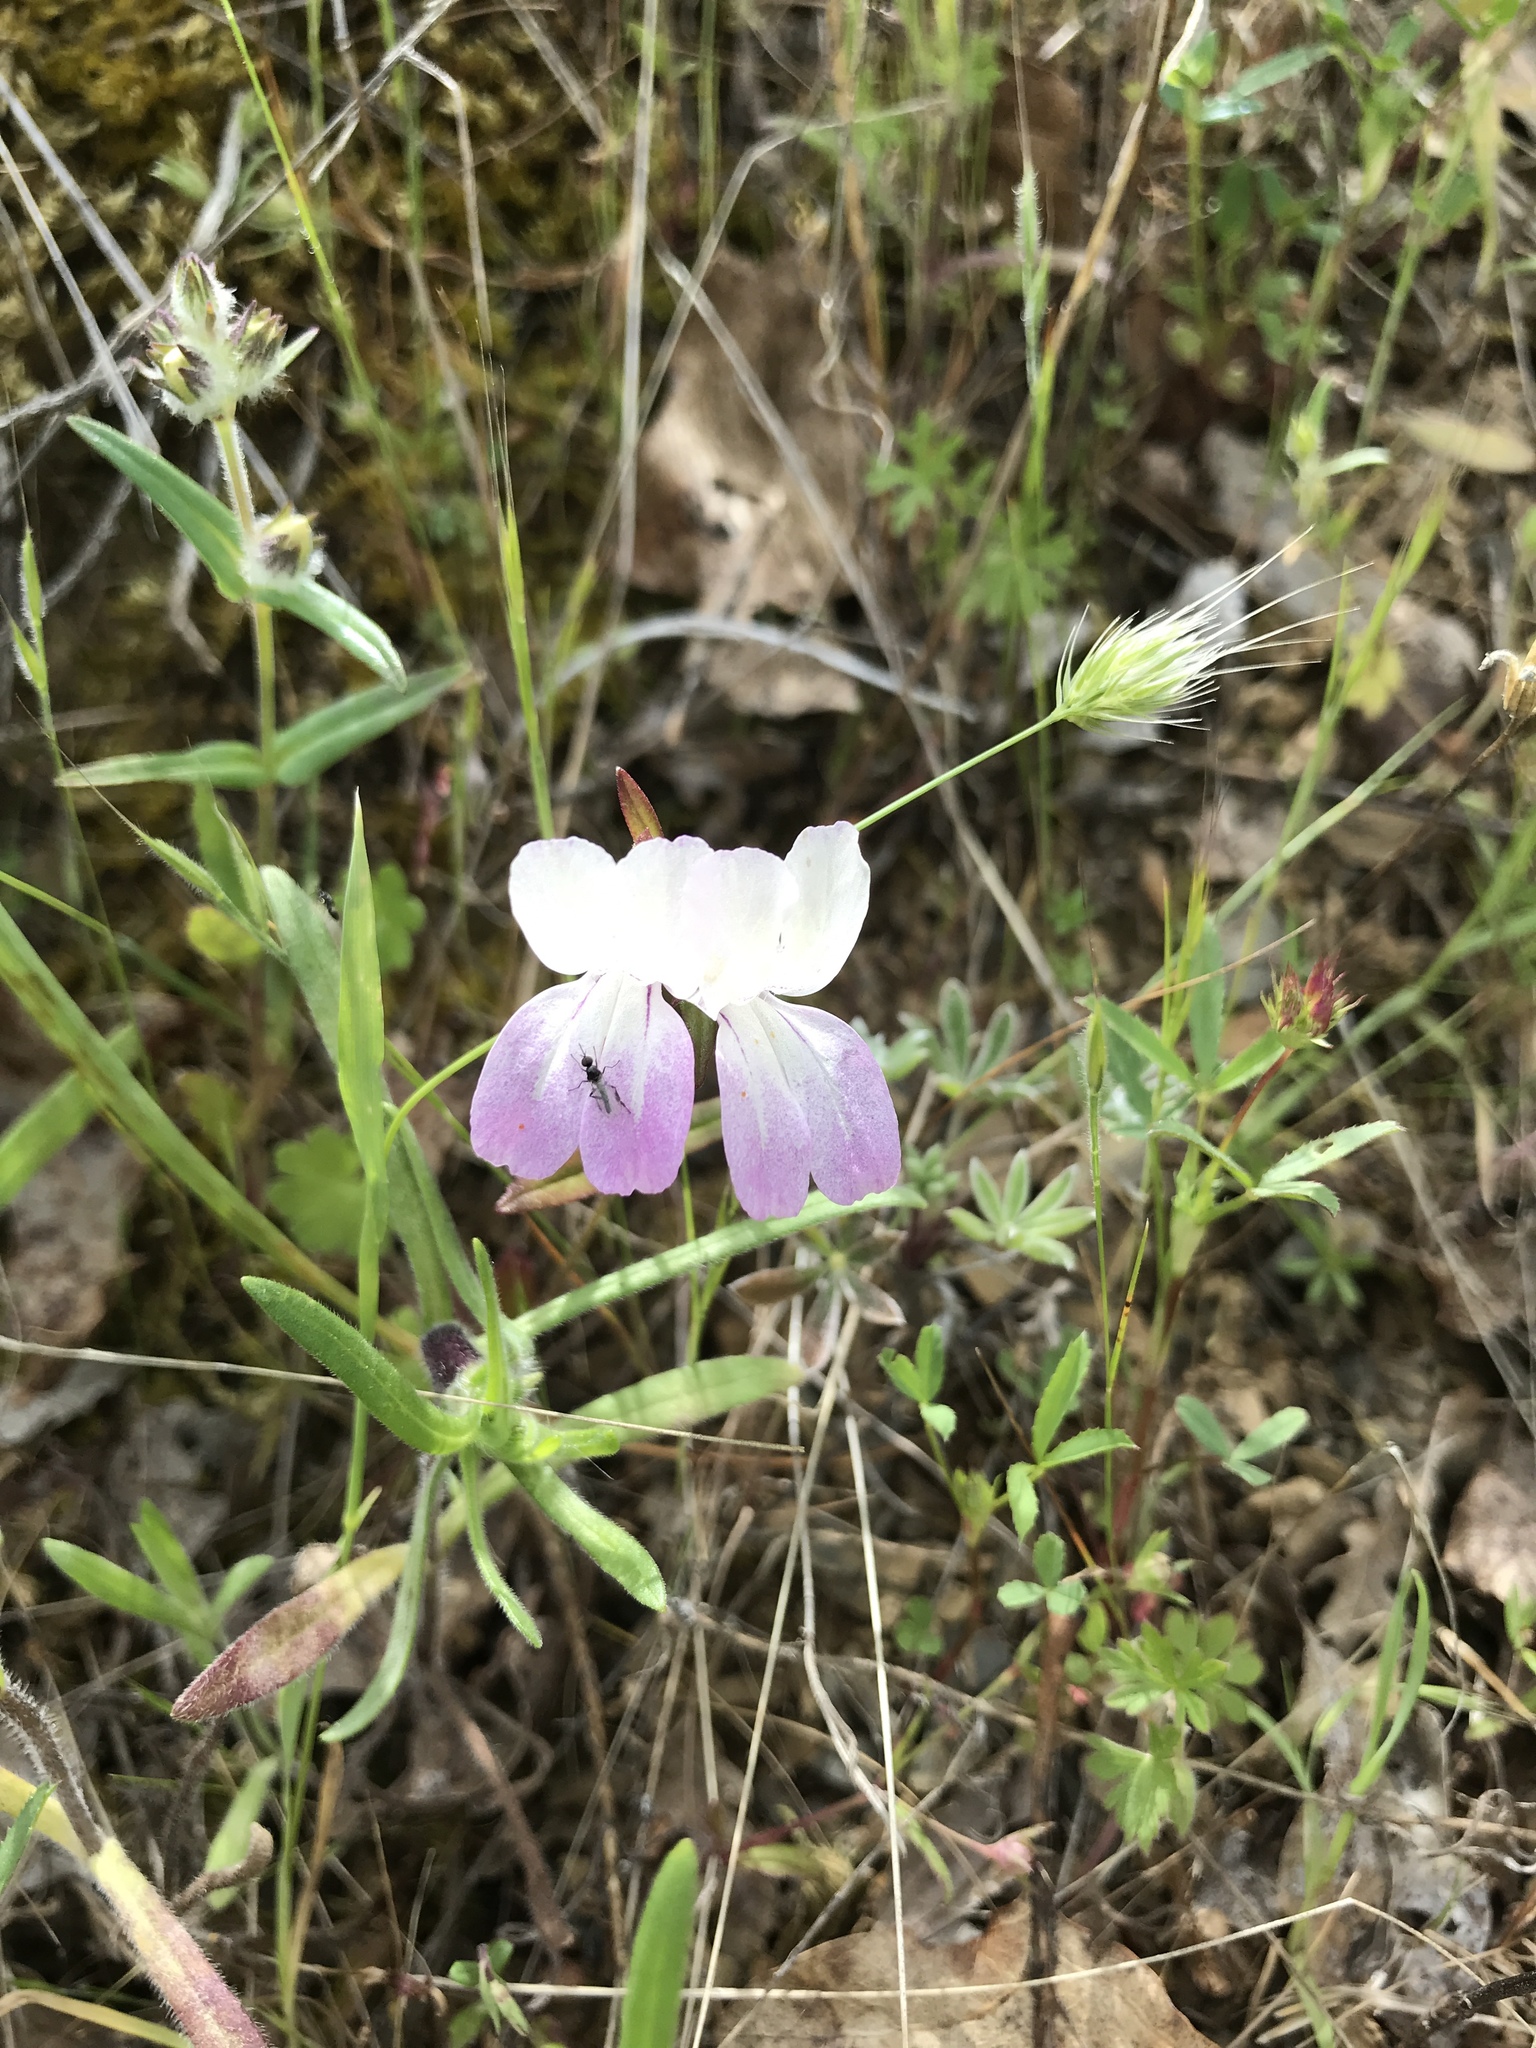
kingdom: Plantae
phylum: Tracheophyta
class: Magnoliopsida
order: Lamiales
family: Plantaginaceae
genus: Collinsia
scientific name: Collinsia heterophylla
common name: Chinese-houses
